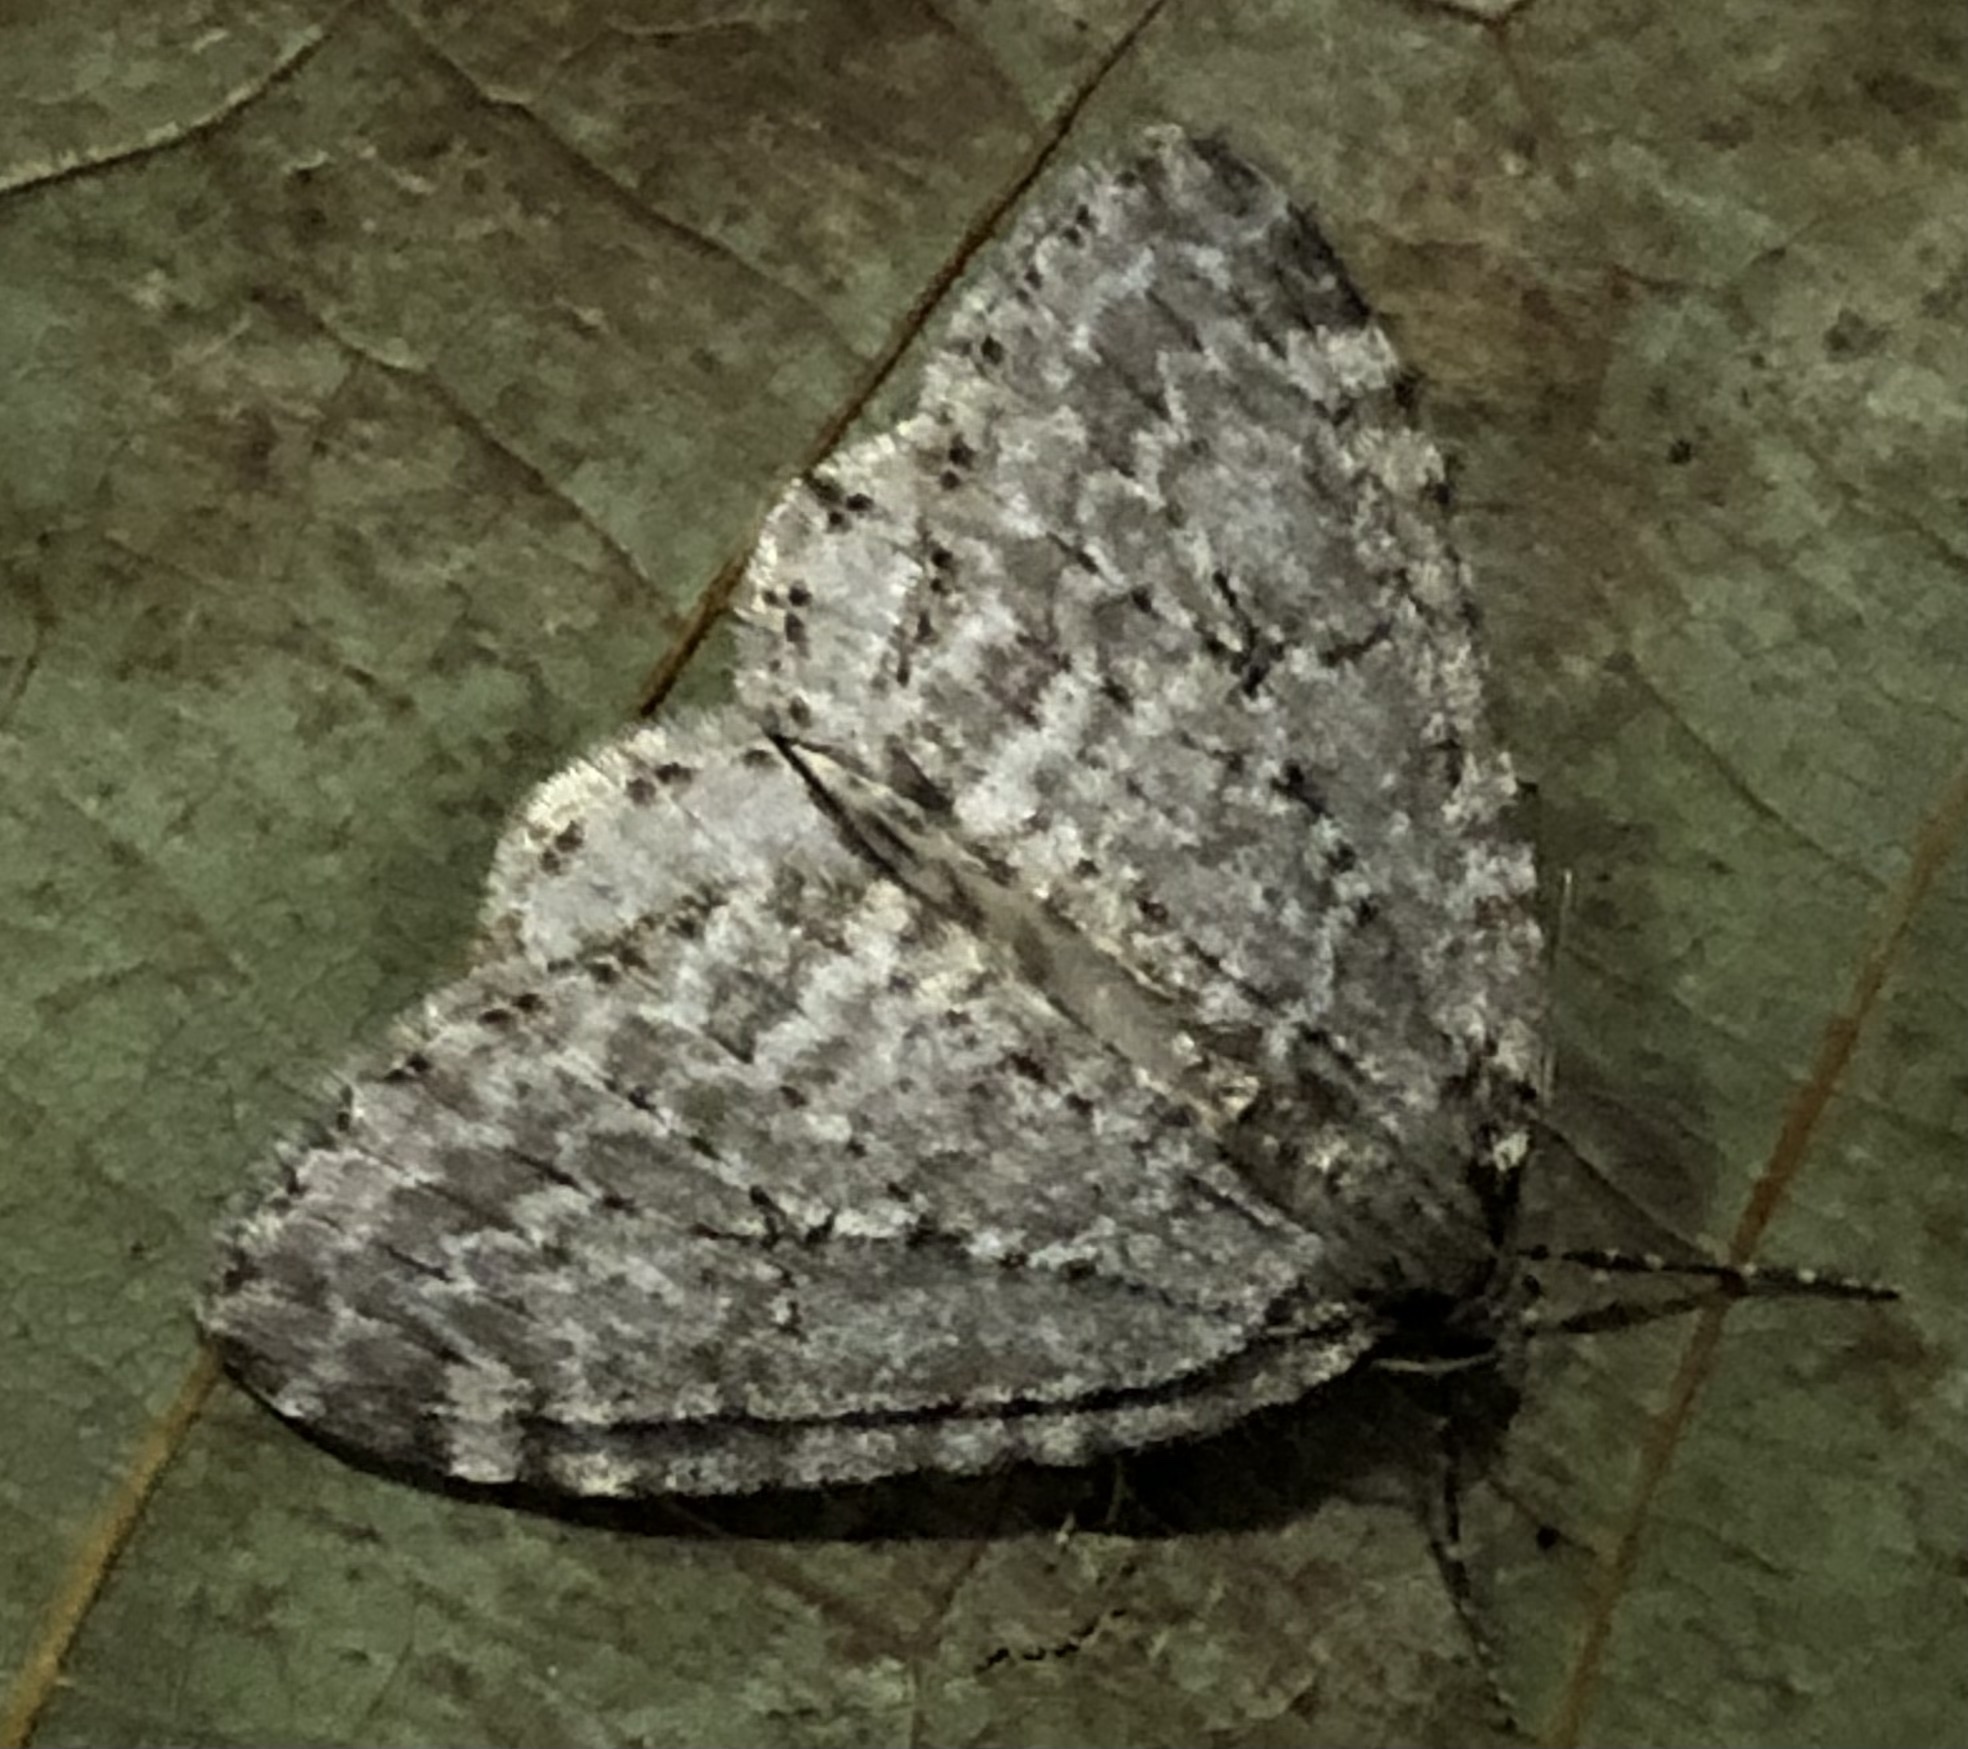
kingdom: Animalia
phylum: Arthropoda
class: Insecta
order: Lepidoptera
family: Geometridae
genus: Epirrita
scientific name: Epirrita autumnata
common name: Autumnal moth
